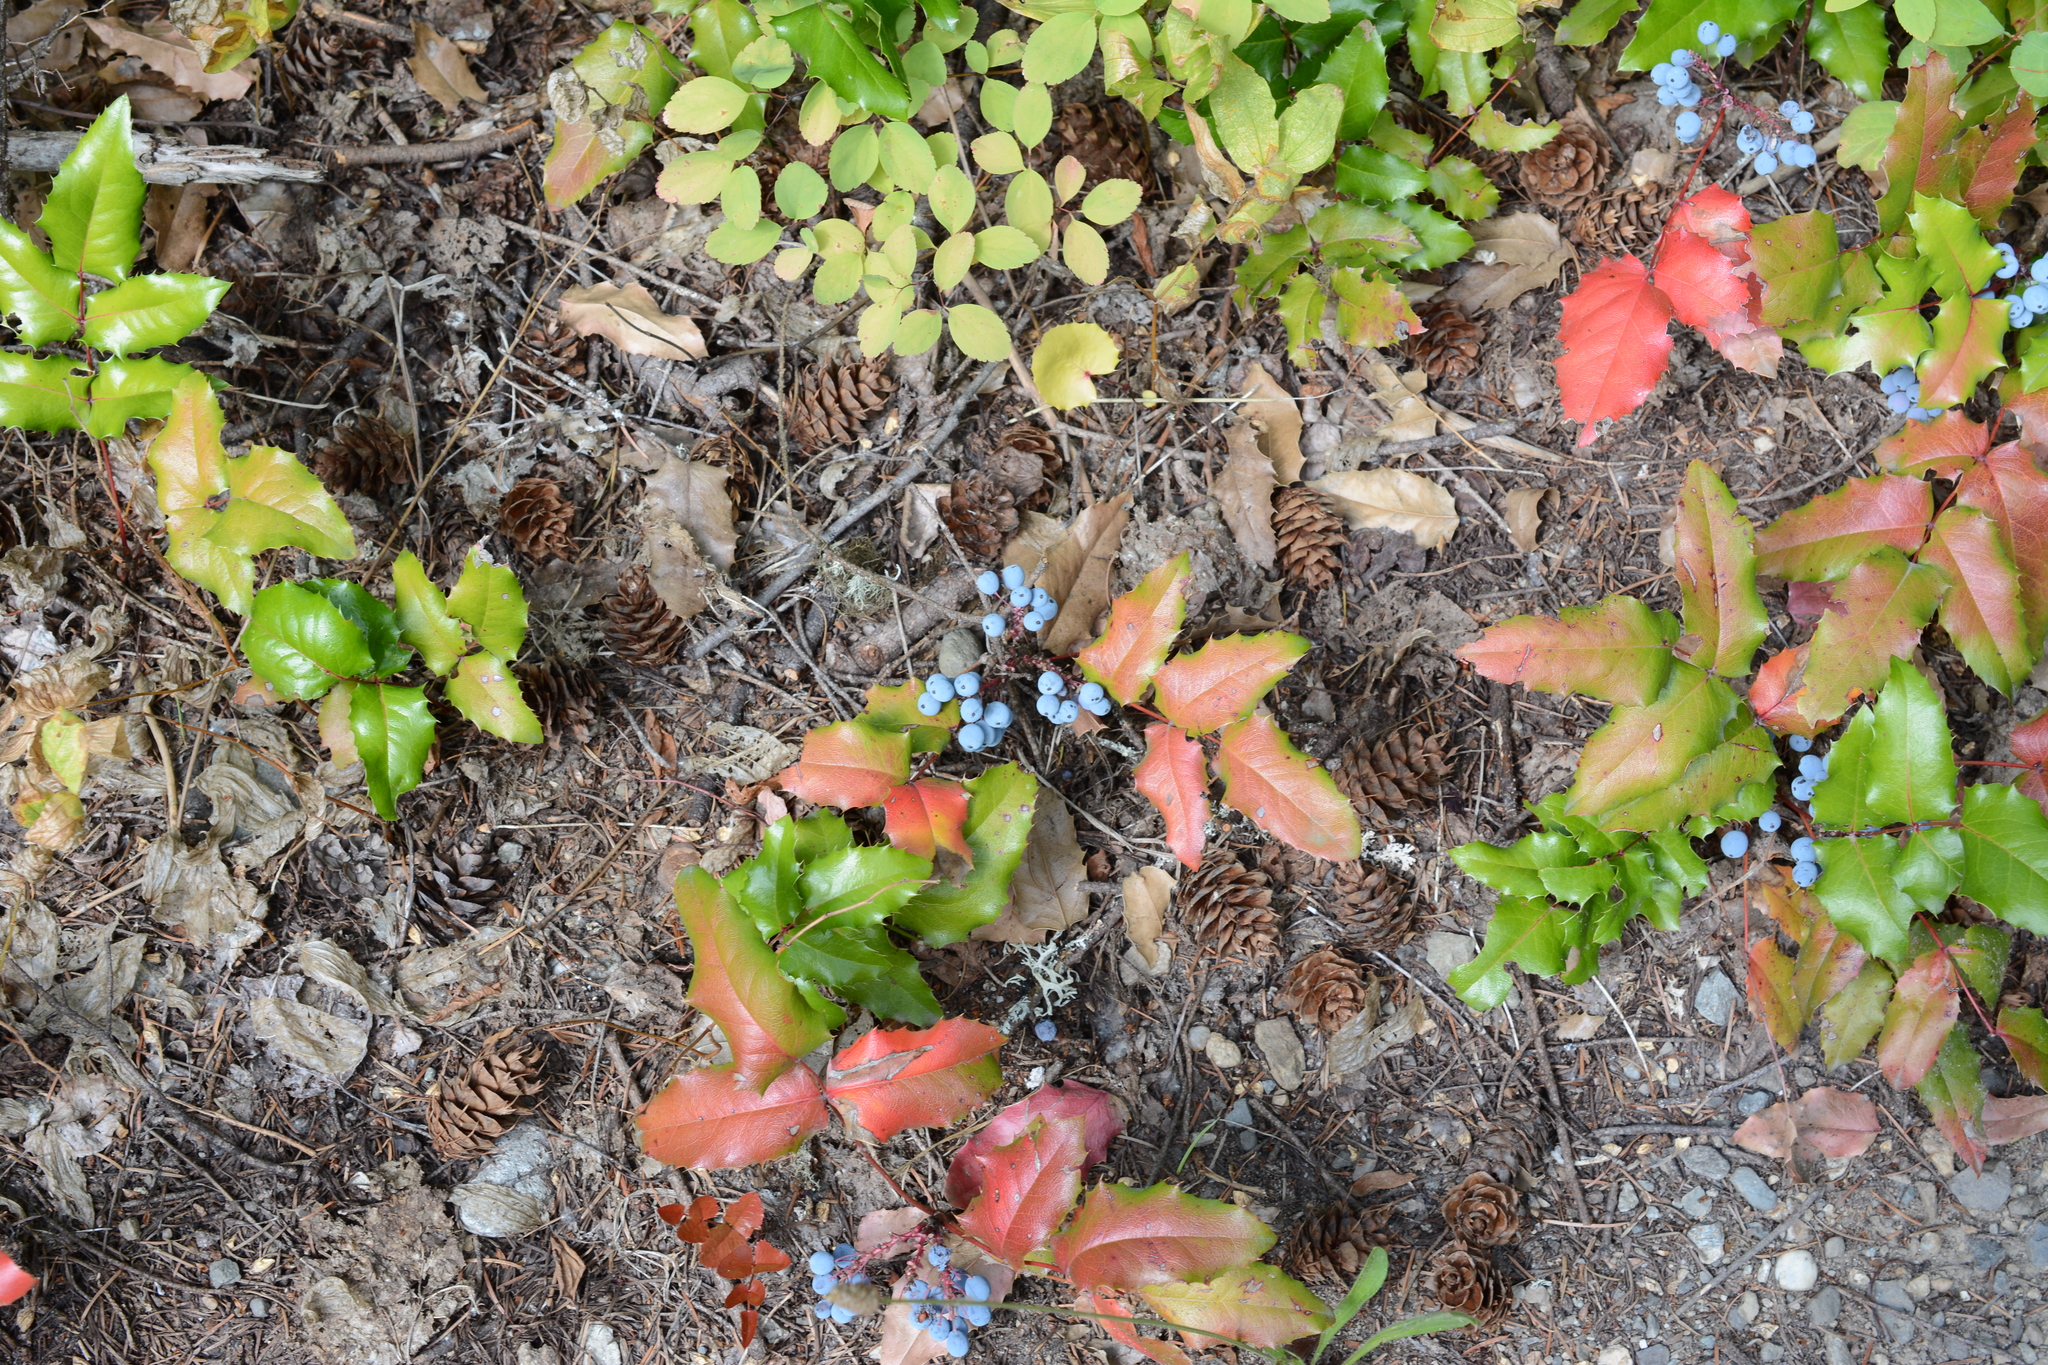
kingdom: Plantae
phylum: Tracheophyta
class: Magnoliopsida
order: Ranunculales
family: Berberidaceae
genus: Mahonia
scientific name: Mahonia aquifolium
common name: Oregon-grape
